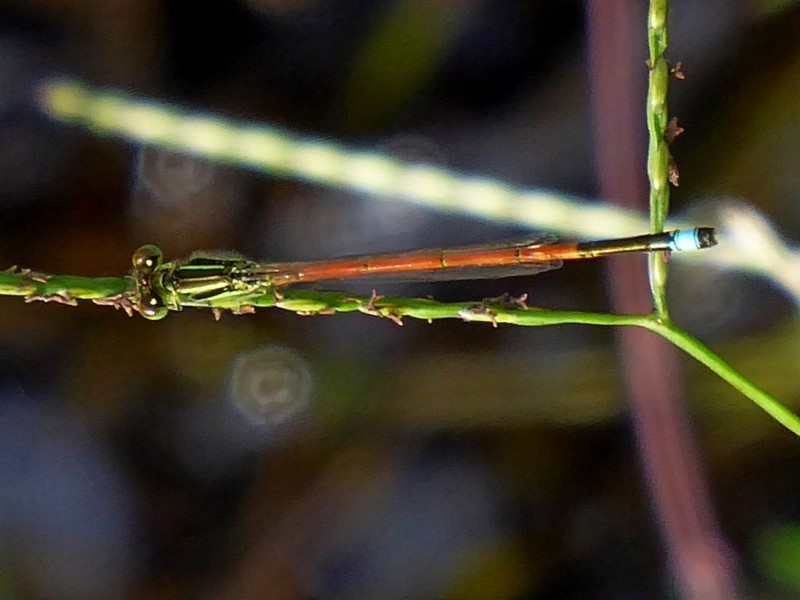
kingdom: Animalia
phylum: Arthropoda
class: Insecta
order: Odonata
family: Coenagrionidae
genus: Ischnura
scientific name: Ischnura aurora
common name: Gossamer damselfly
